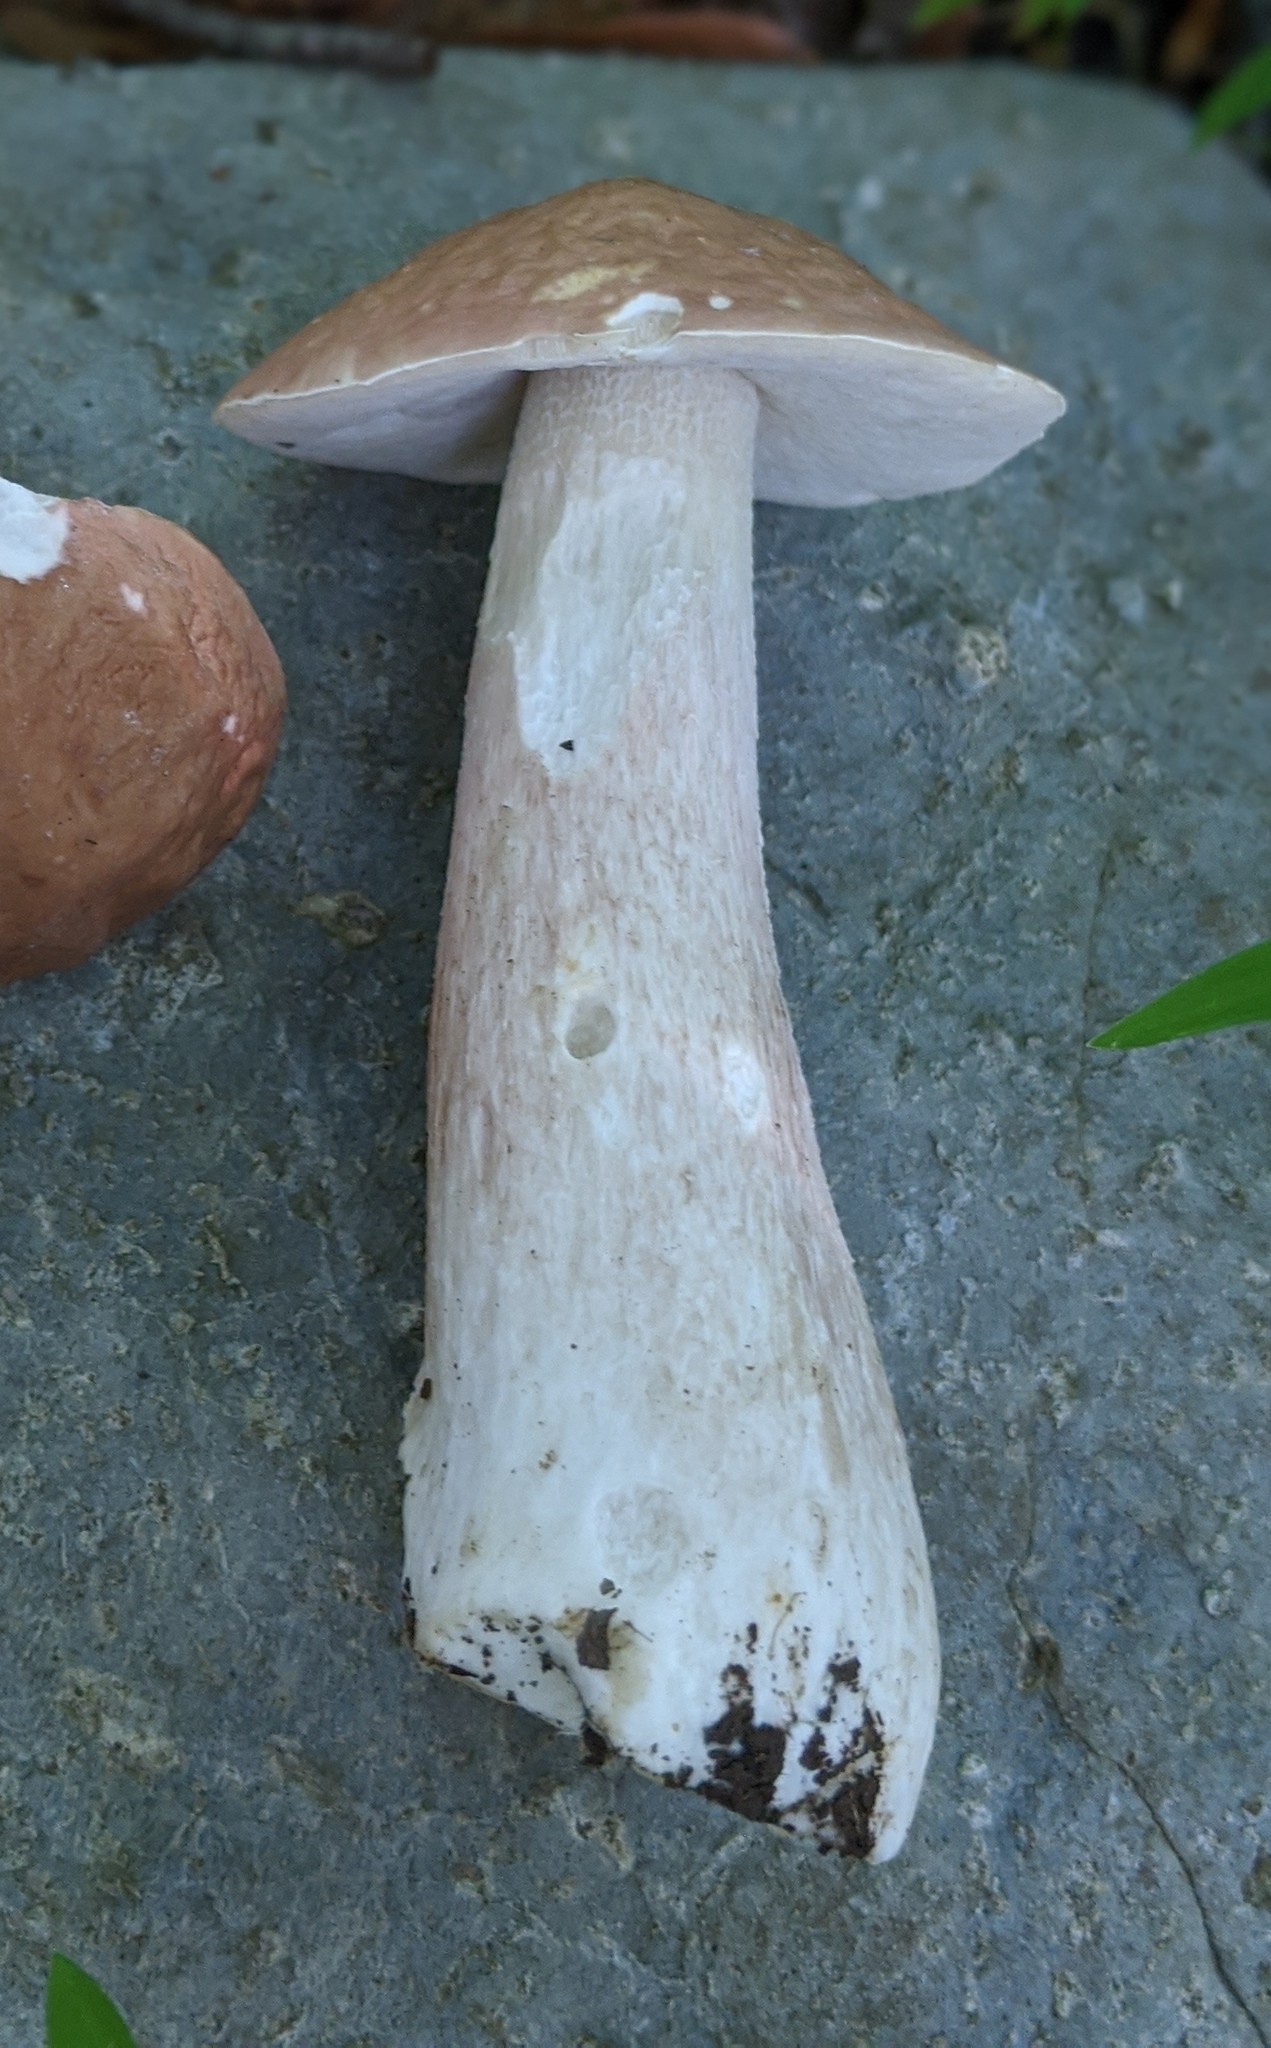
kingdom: Fungi
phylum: Basidiomycota
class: Agaricomycetes
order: Boletales
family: Boletaceae
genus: Xanthoconium
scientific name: Xanthoconium separans
